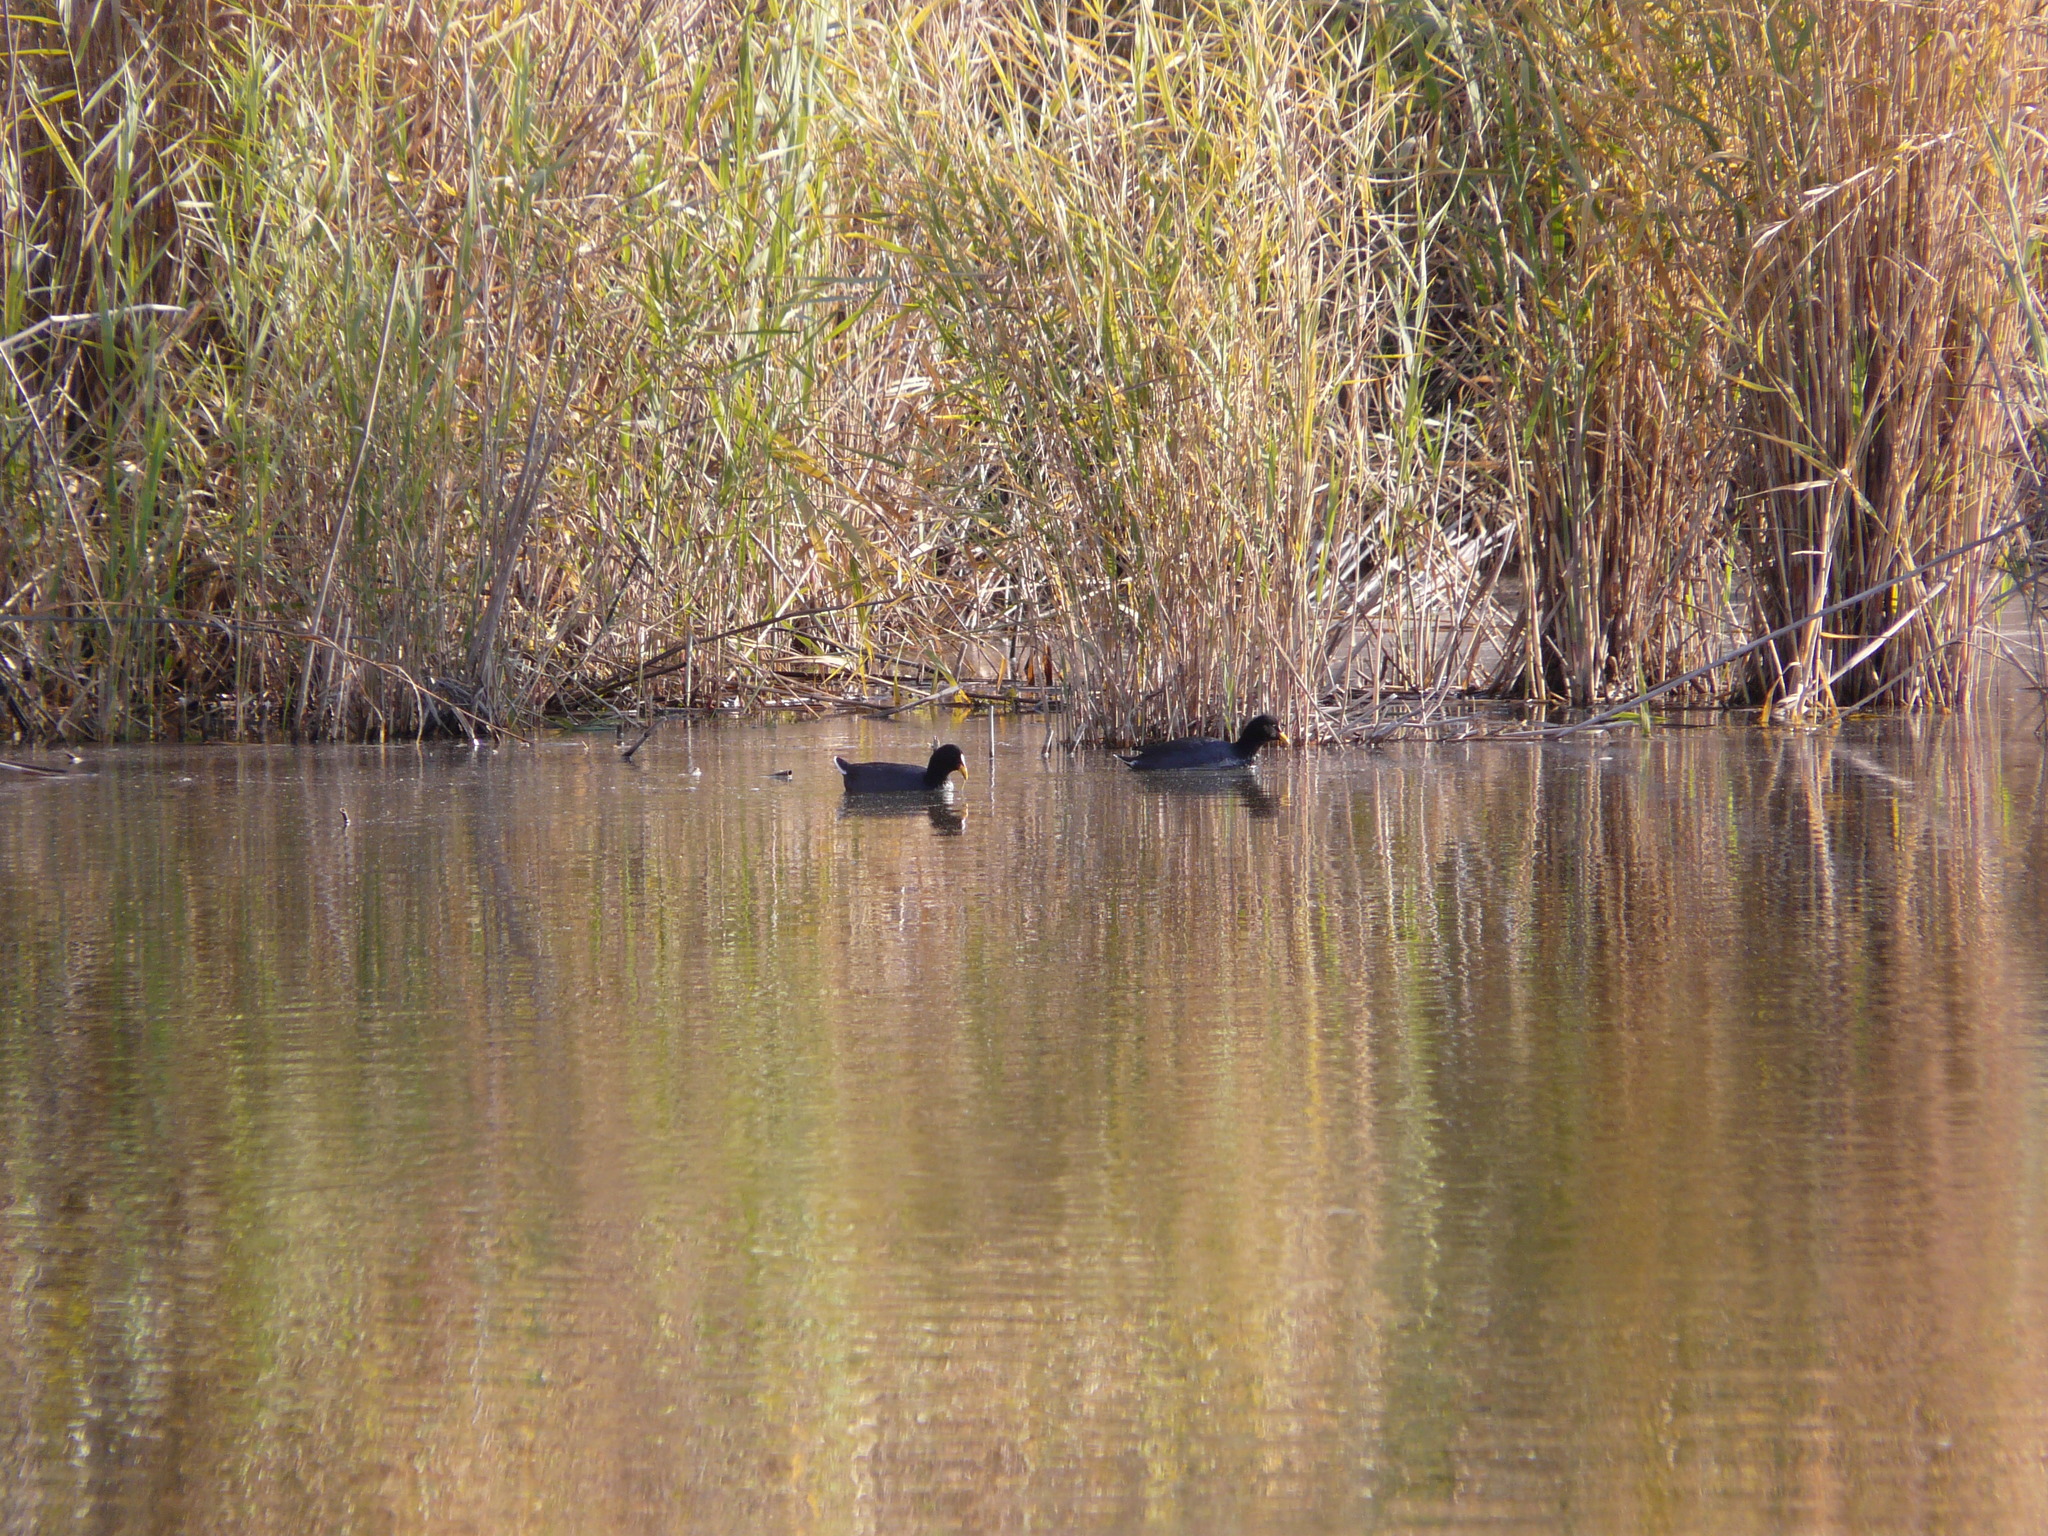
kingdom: Animalia
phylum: Chordata
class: Aves
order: Gruiformes
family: Rallidae
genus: Fulica
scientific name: Fulica rufifrons
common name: Red-fronted coot
